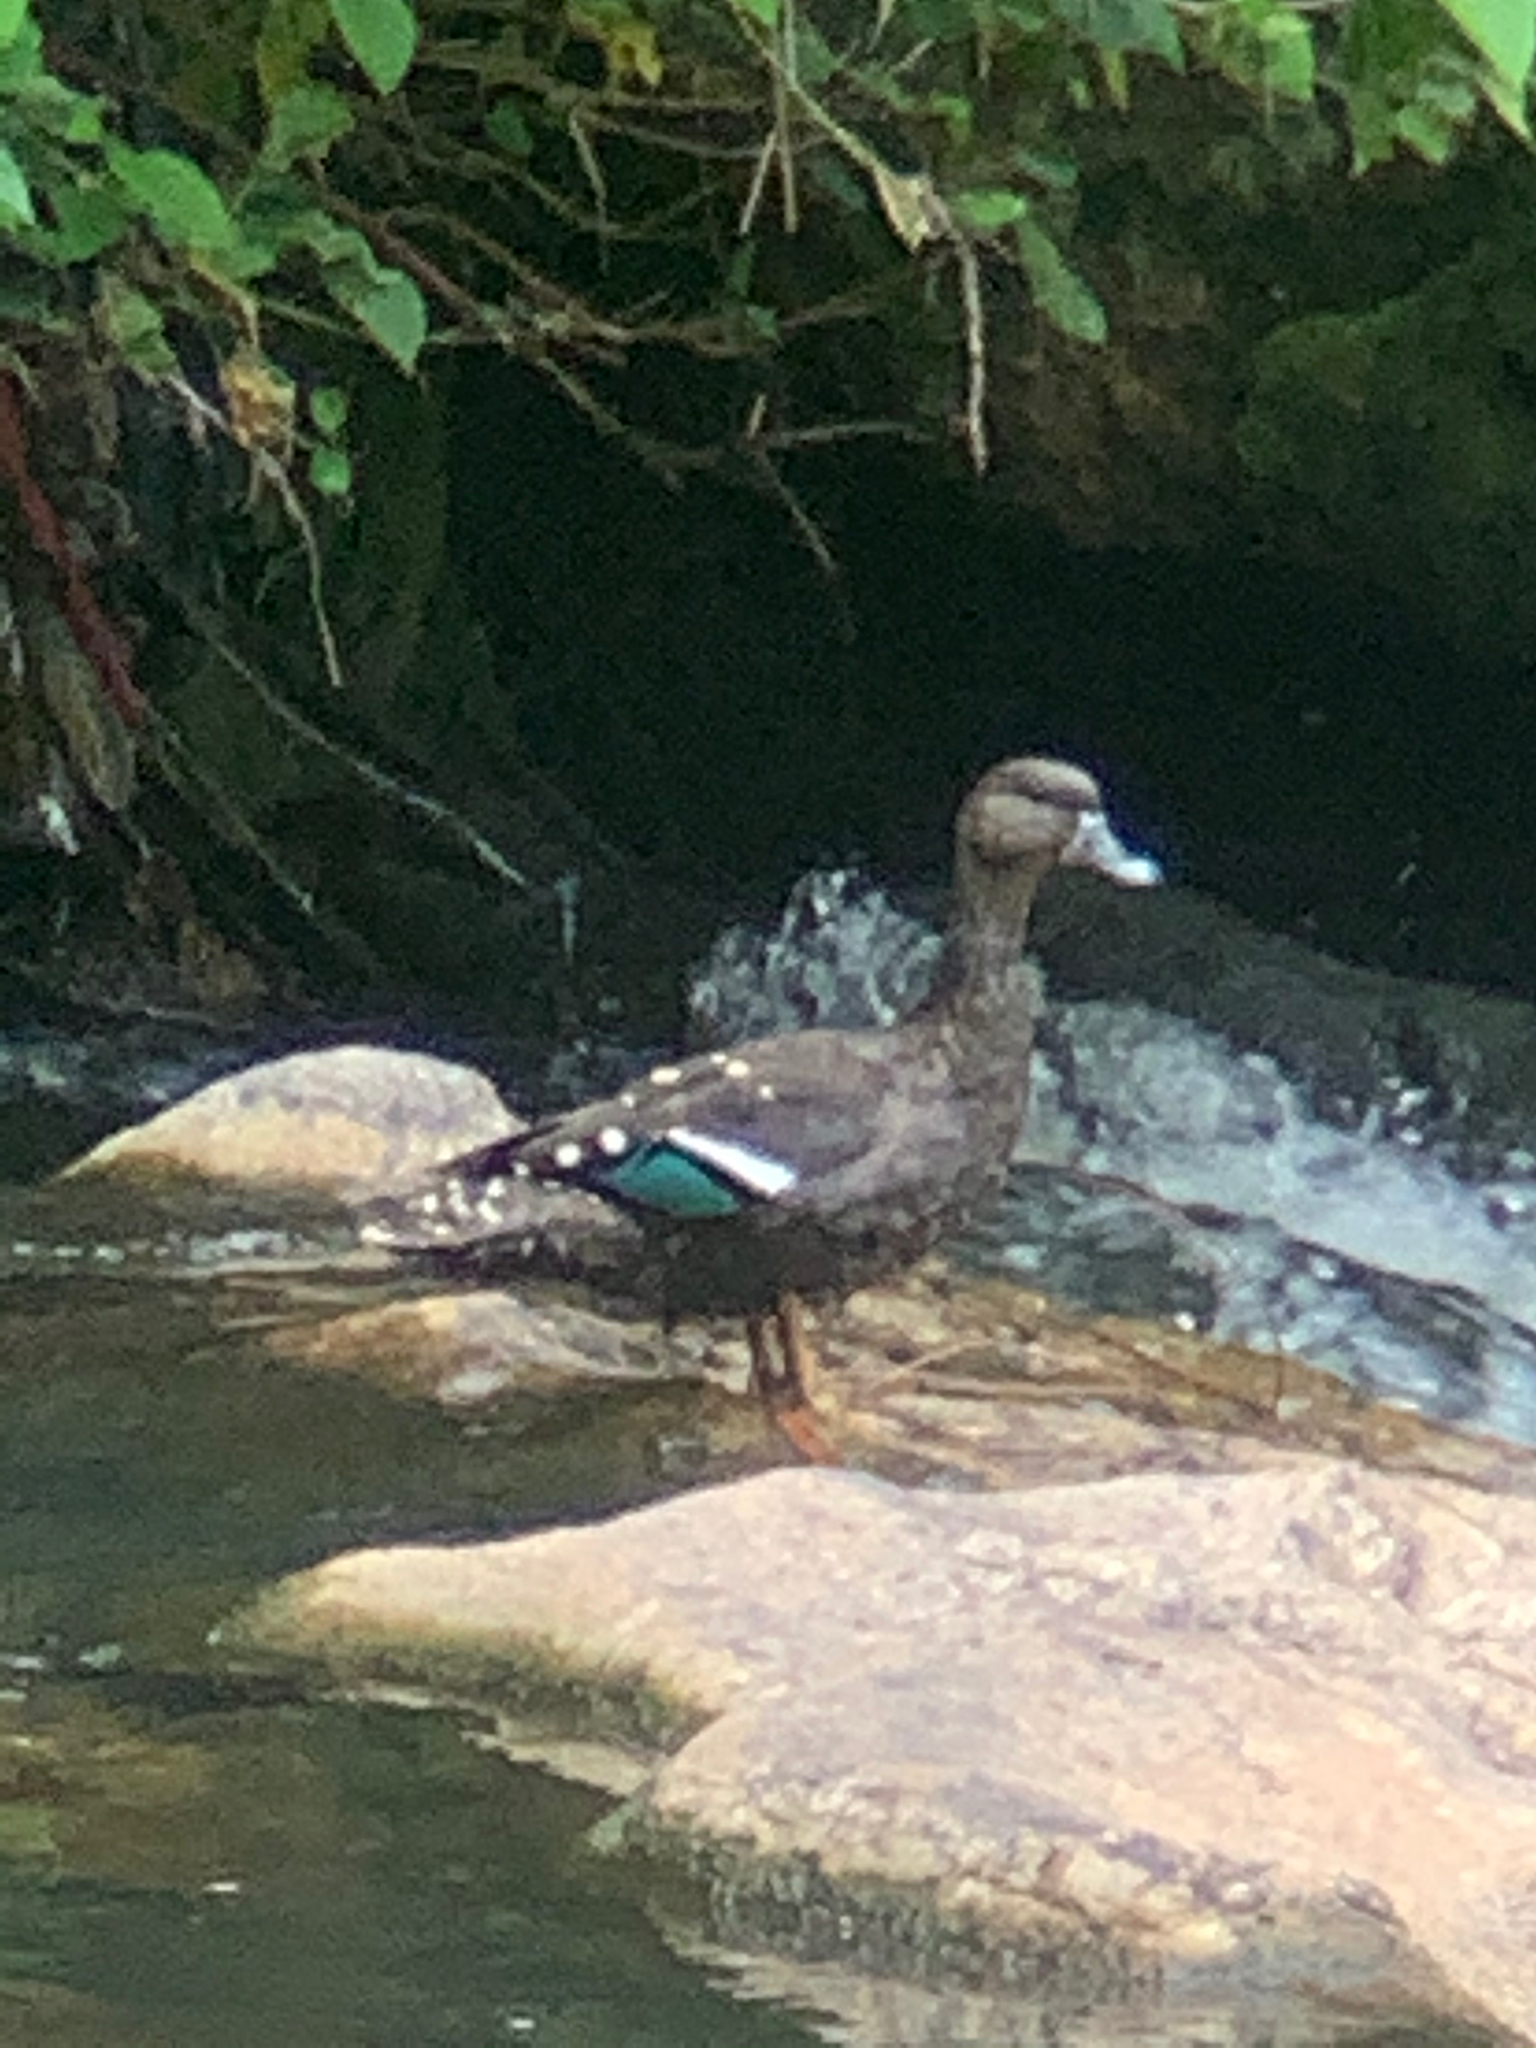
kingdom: Animalia
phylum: Chordata
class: Aves
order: Anseriformes
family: Anatidae
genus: Anas
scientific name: Anas sparsa
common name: African black duck
